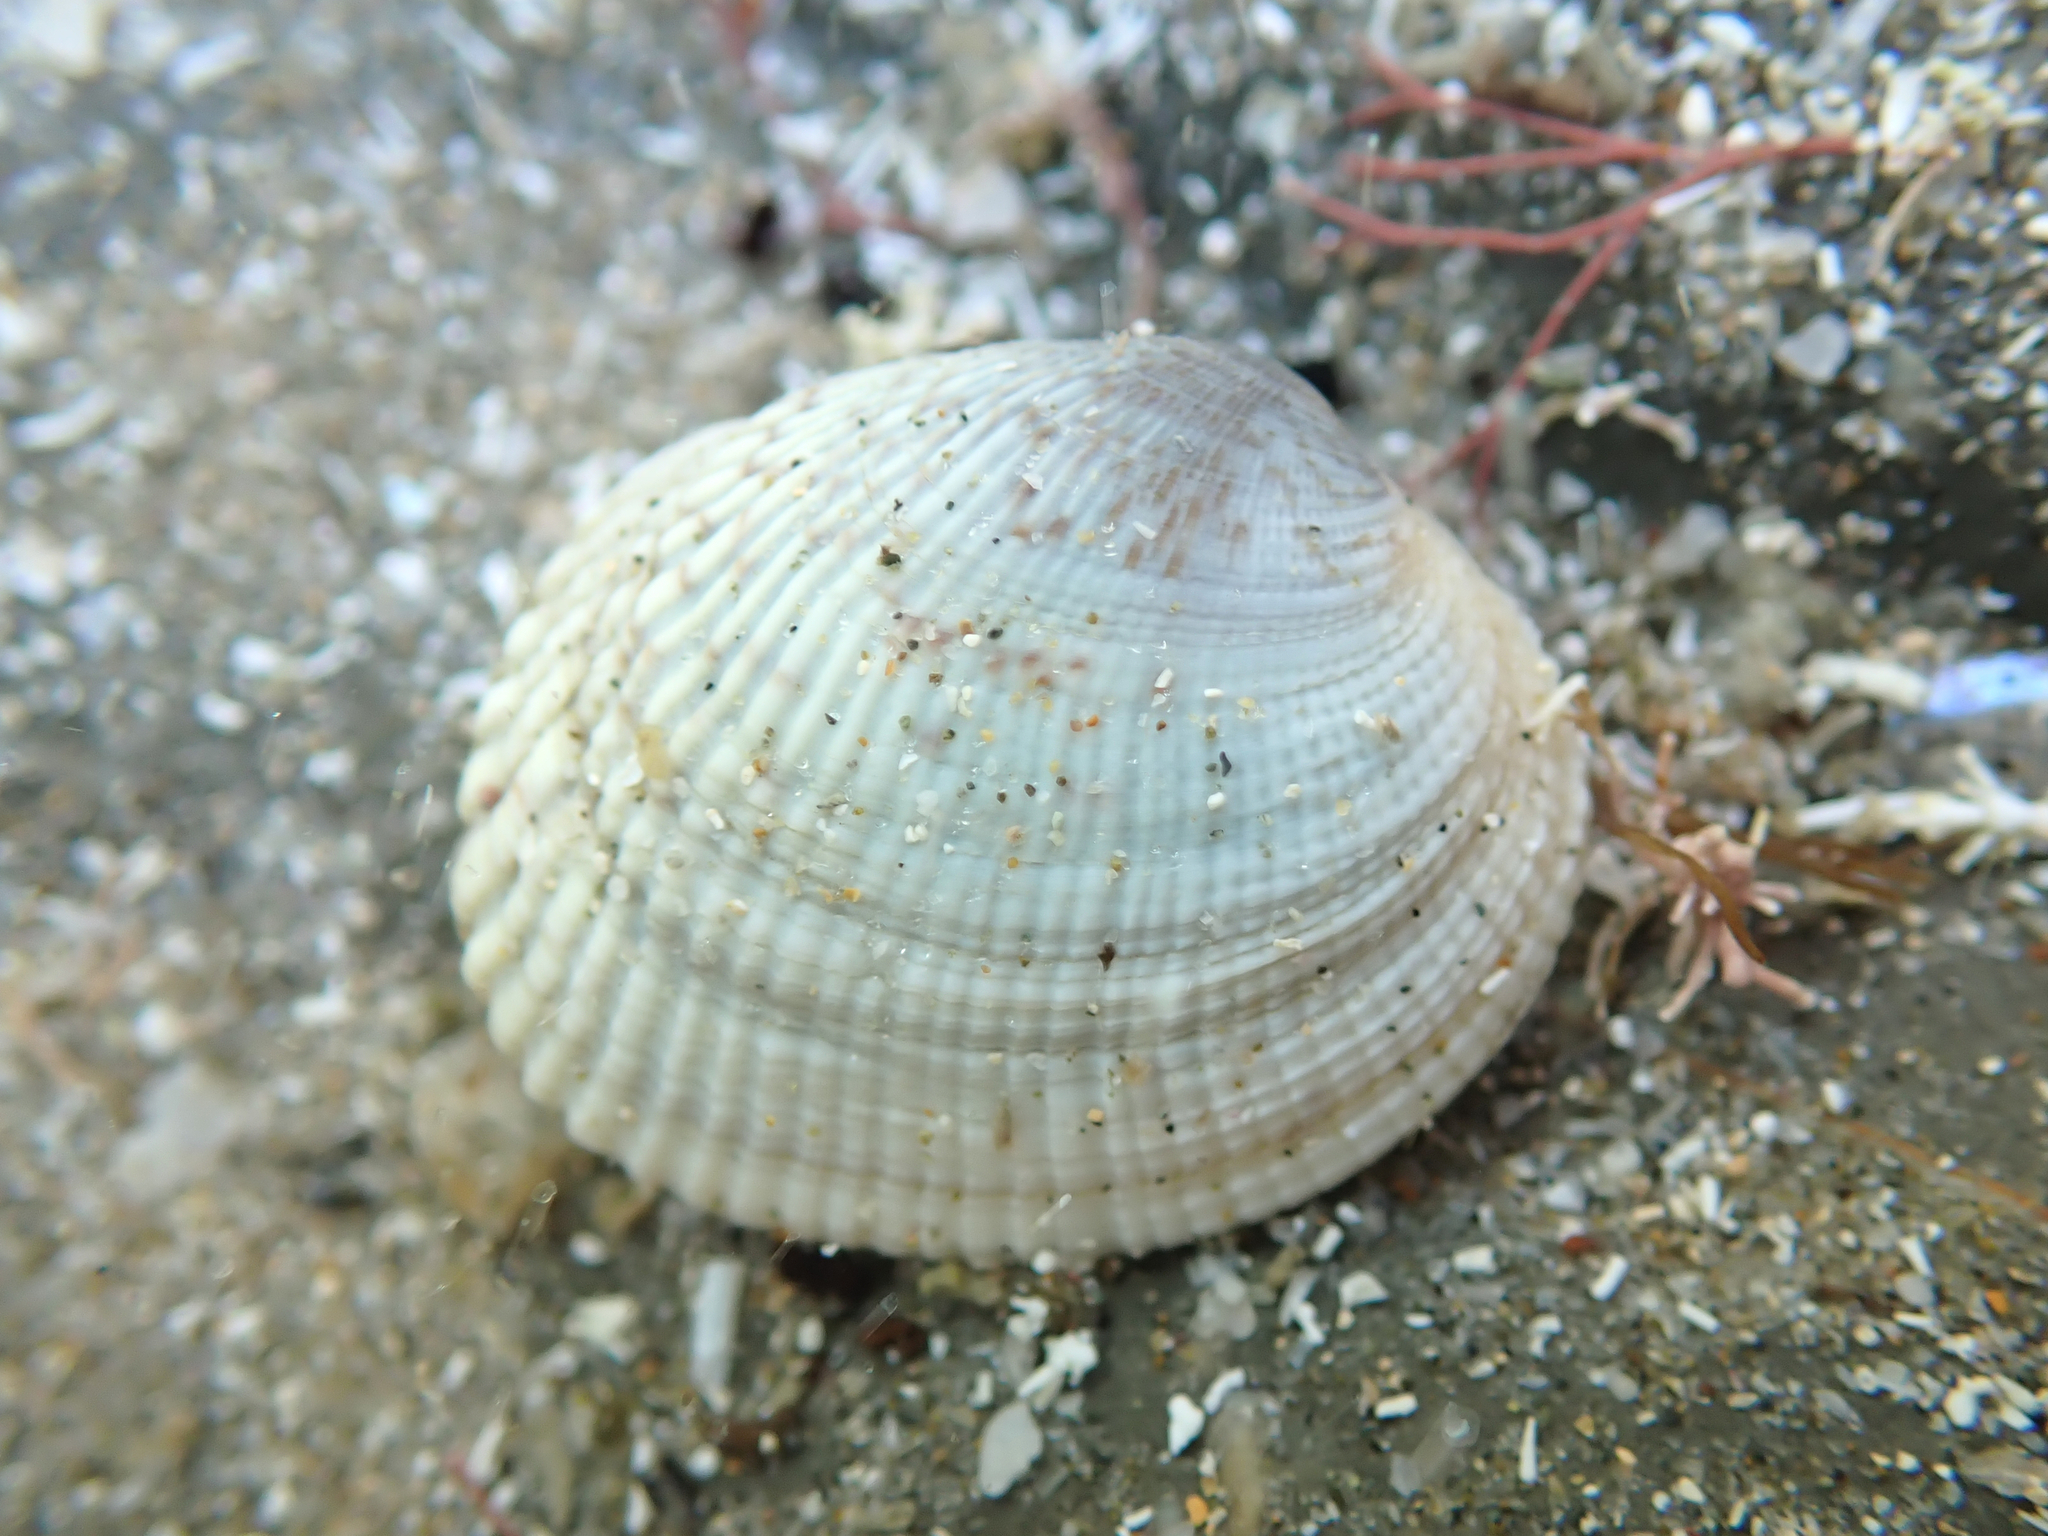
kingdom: Animalia
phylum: Mollusca
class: Bivalvia
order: Venerida
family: Veneridae
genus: Leukoma
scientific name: Leukoma crassicosta
